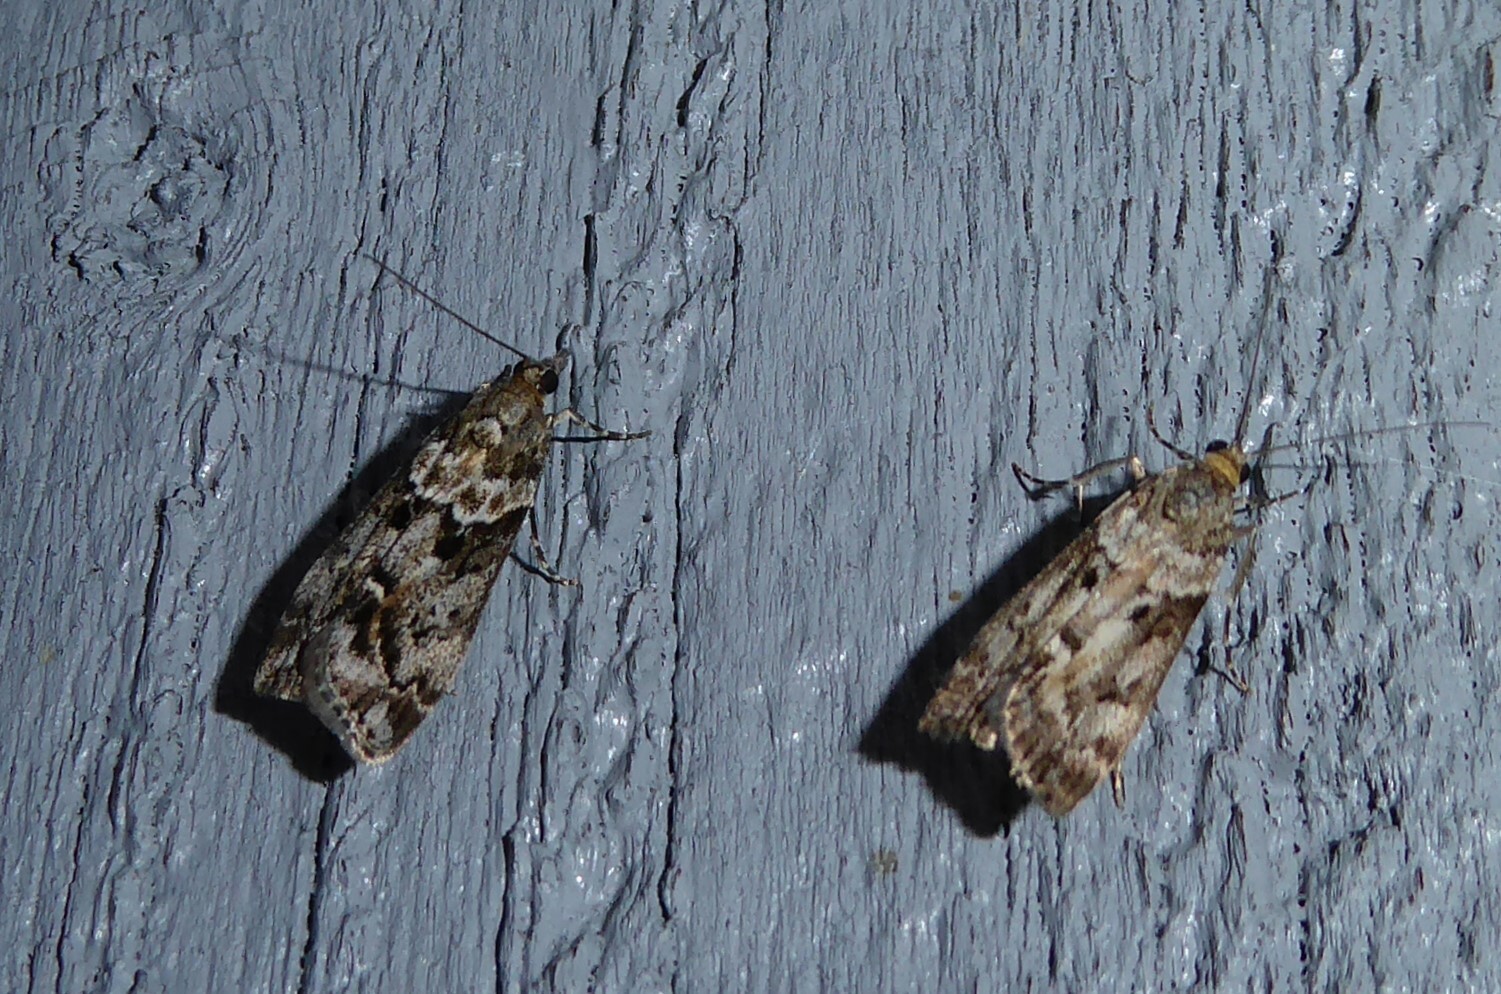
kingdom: Animalia
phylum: Arthropoda
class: Insecta
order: Lepidoptera
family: Crambidae
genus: Eudonia
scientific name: Eudonia submarginalis
